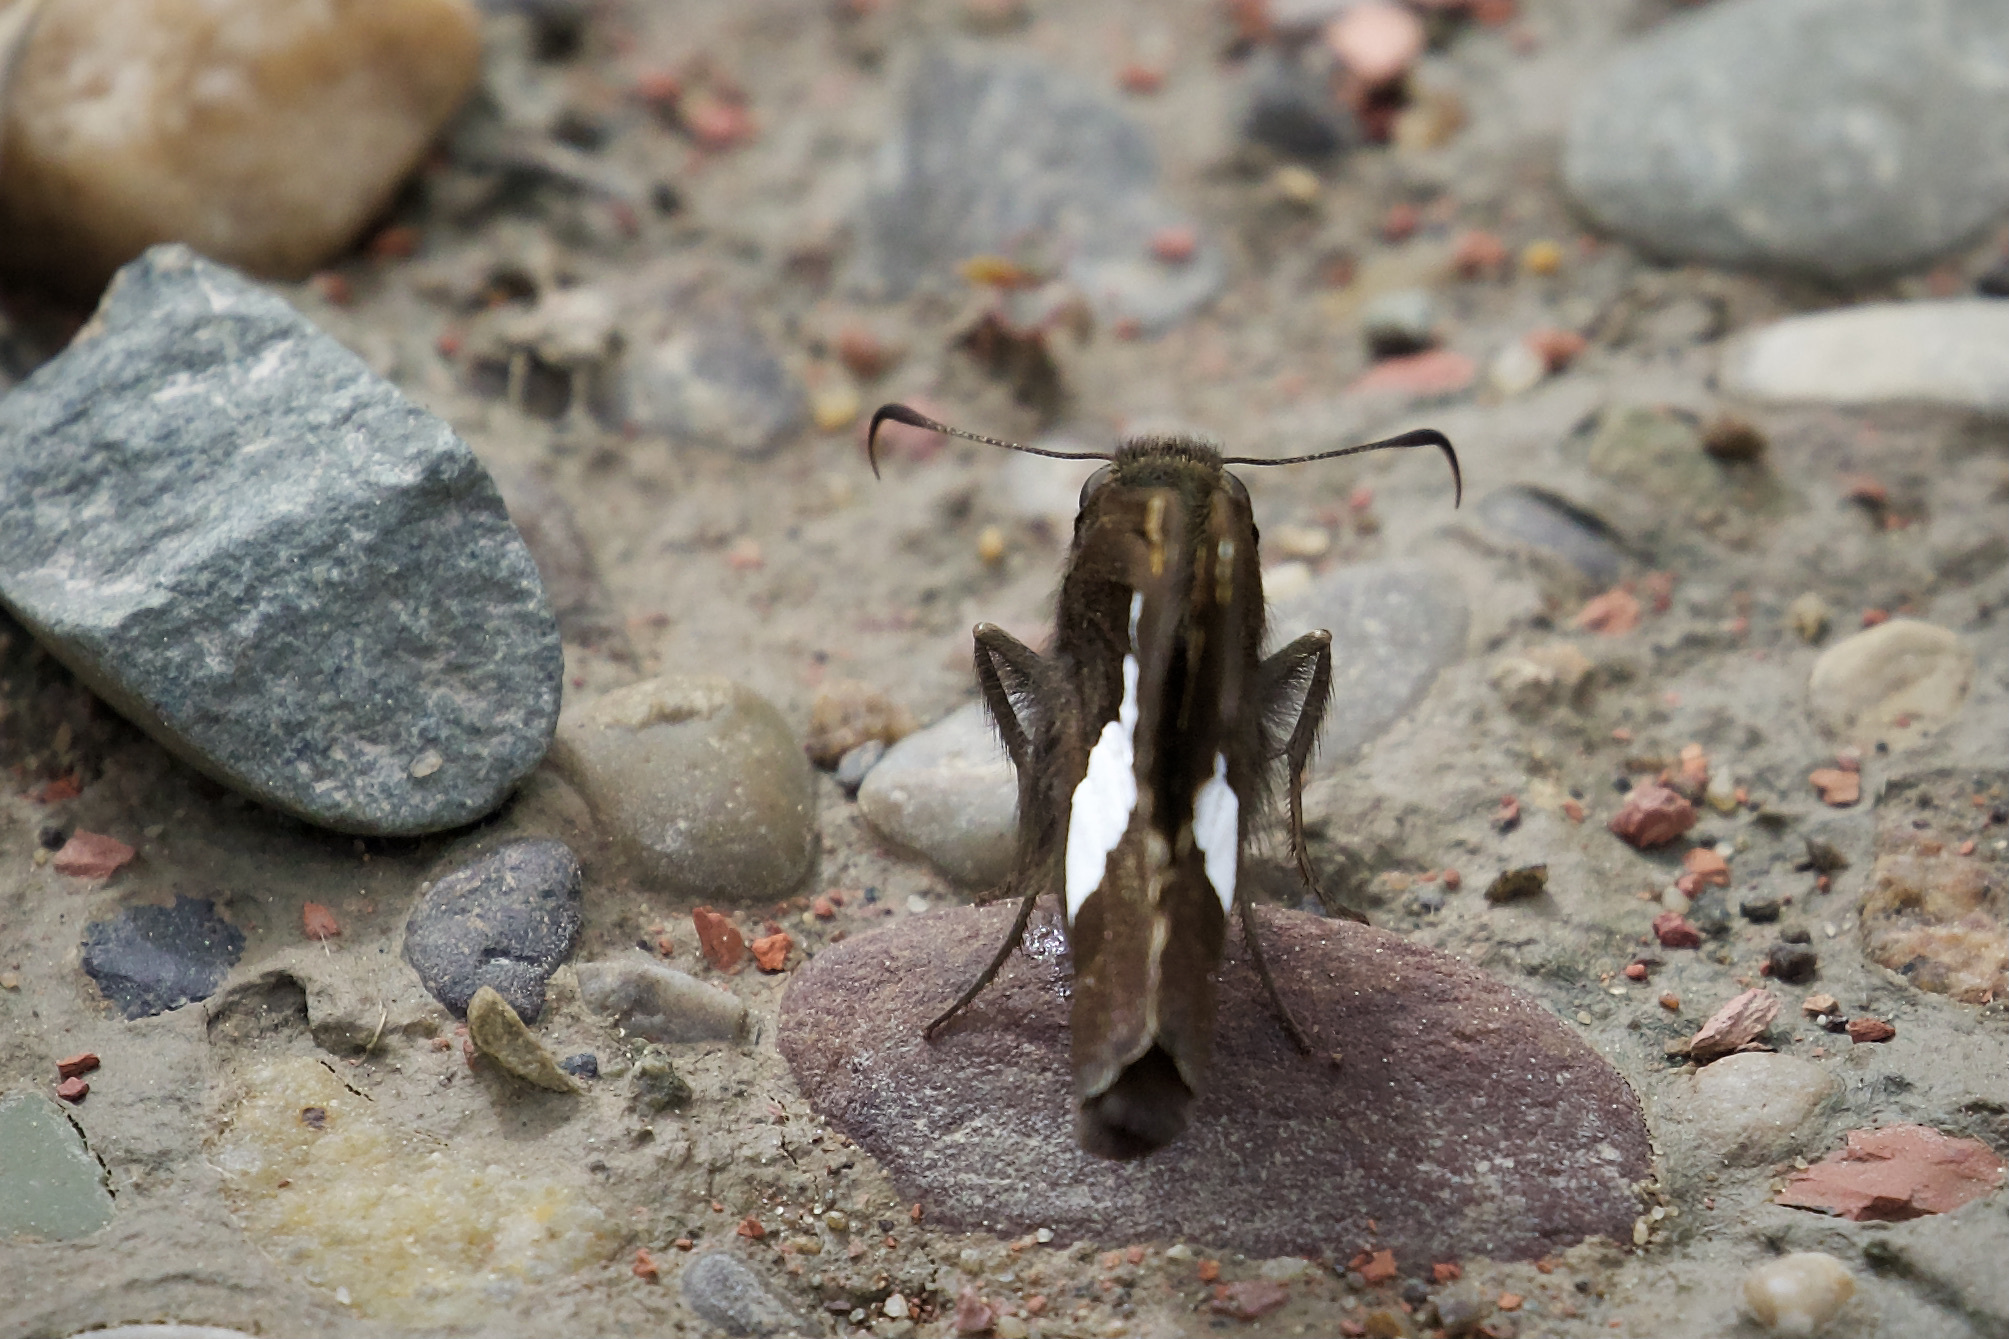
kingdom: Animalia
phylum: Arthropoda
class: Insecta
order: Lepidoptera
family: Hesperiidae
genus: Epargyreus
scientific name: Epargyreus clarus
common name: Silver-spotted skipper
